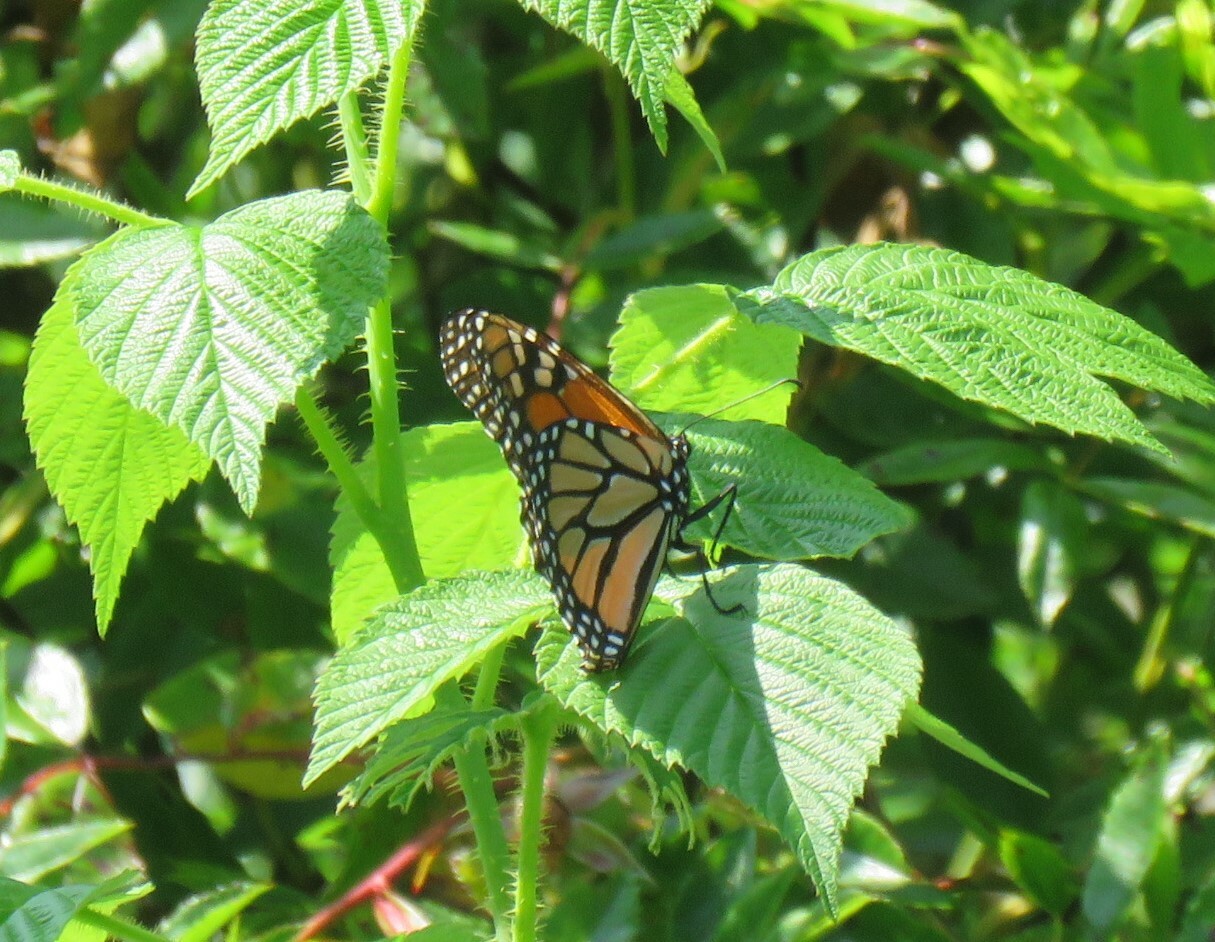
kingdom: Animalia
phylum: Arthropoda
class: Insecta
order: Lepidoptera
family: Nymphalidae
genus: Danaus
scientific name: Danaus plexippus
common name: Monarch
